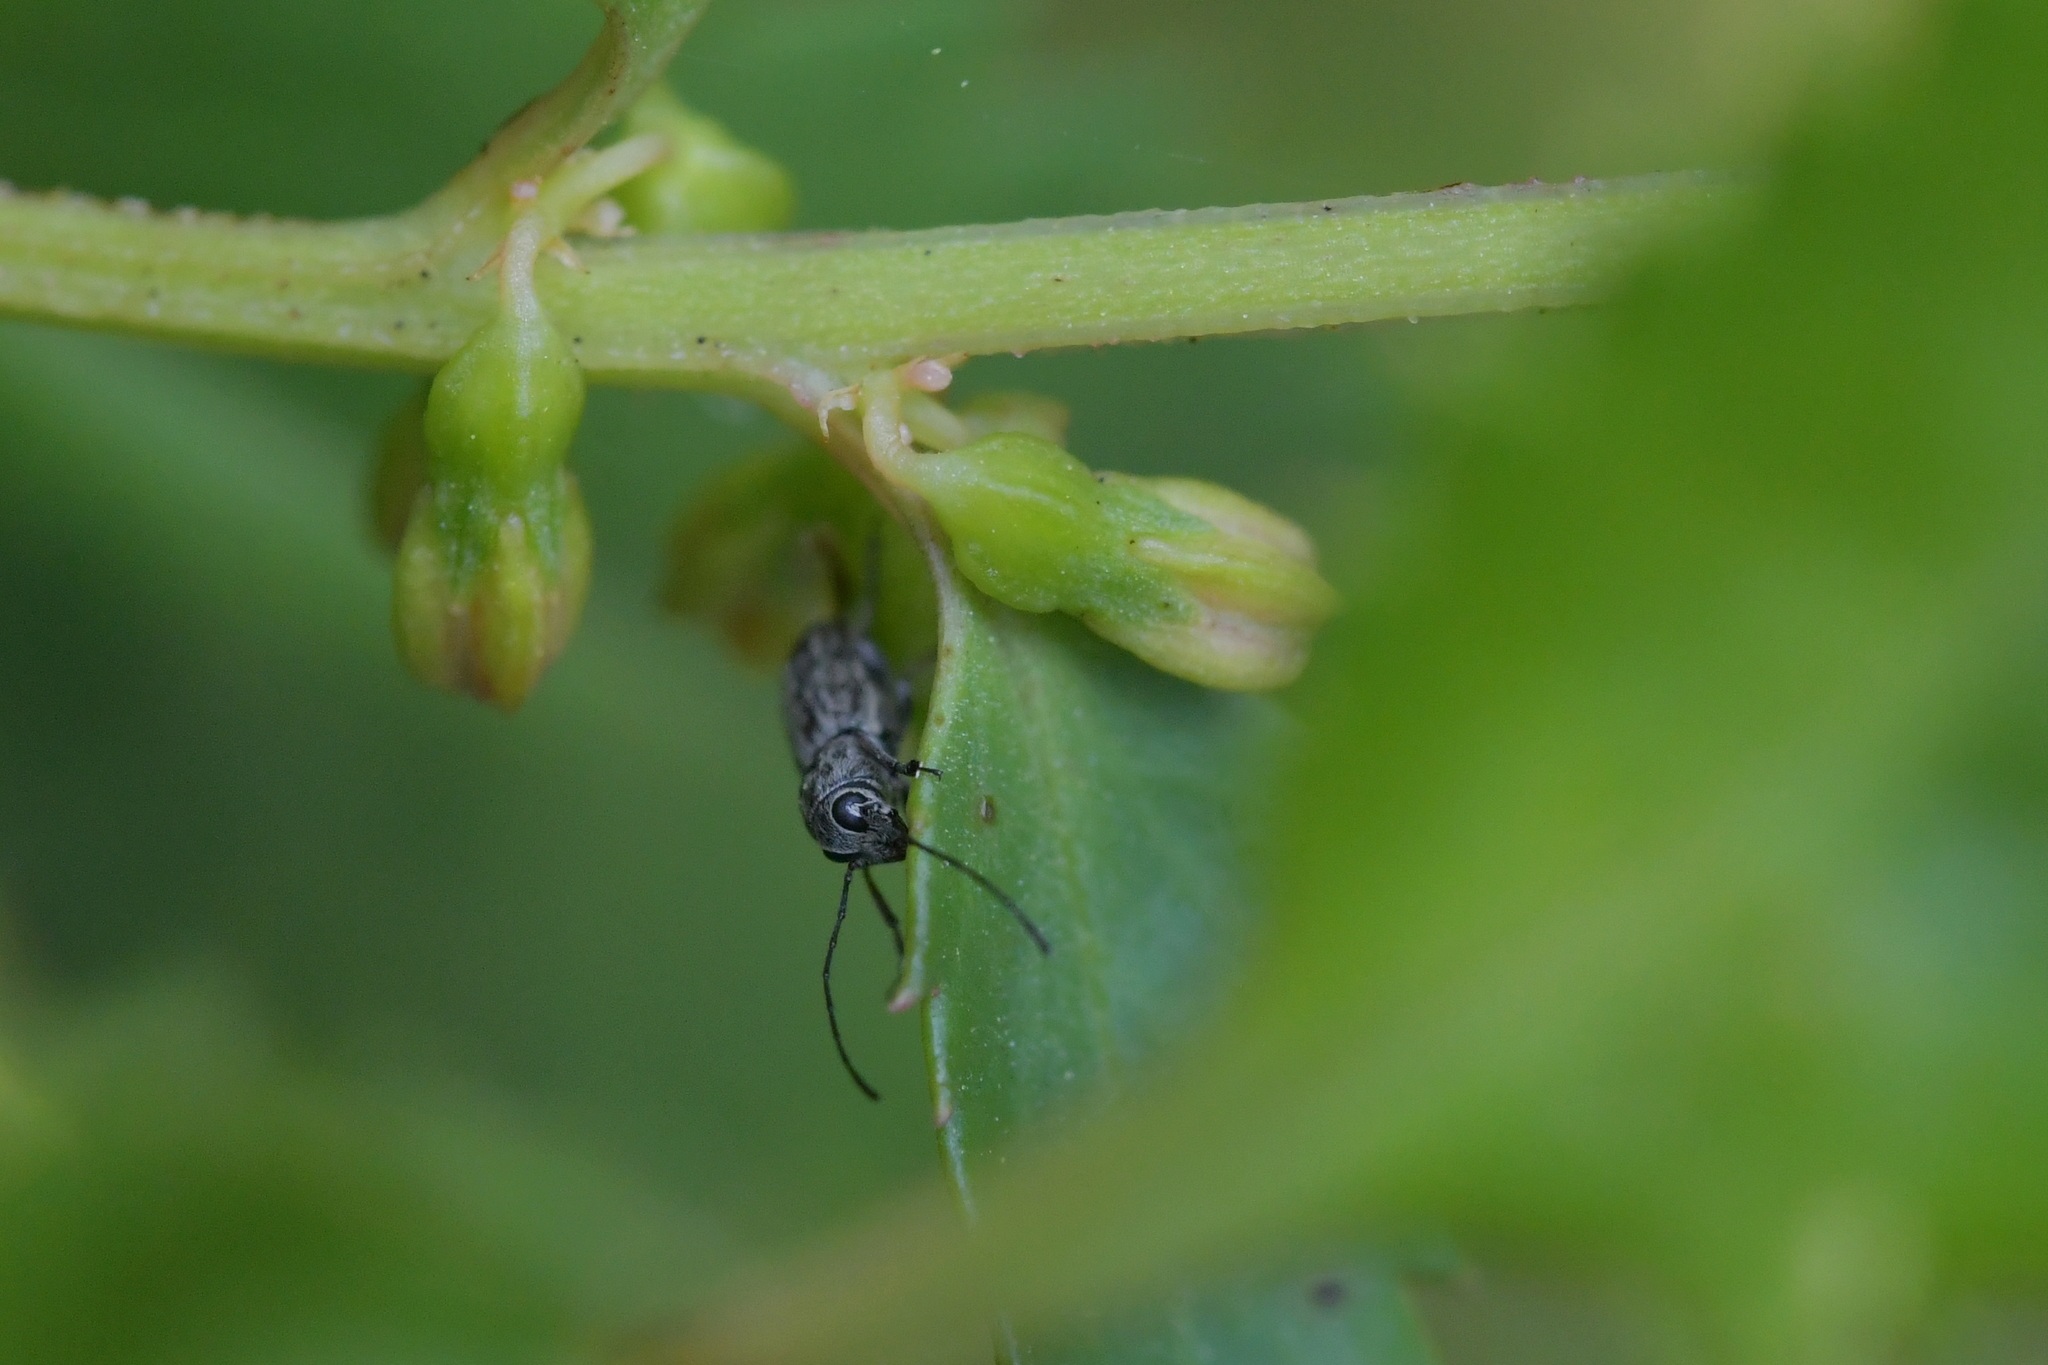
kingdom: Animalia
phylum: Arthropoda
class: Insecta
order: Coleoptera
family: Anthribidae
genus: Euciodes
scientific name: Euciodes suturalis
